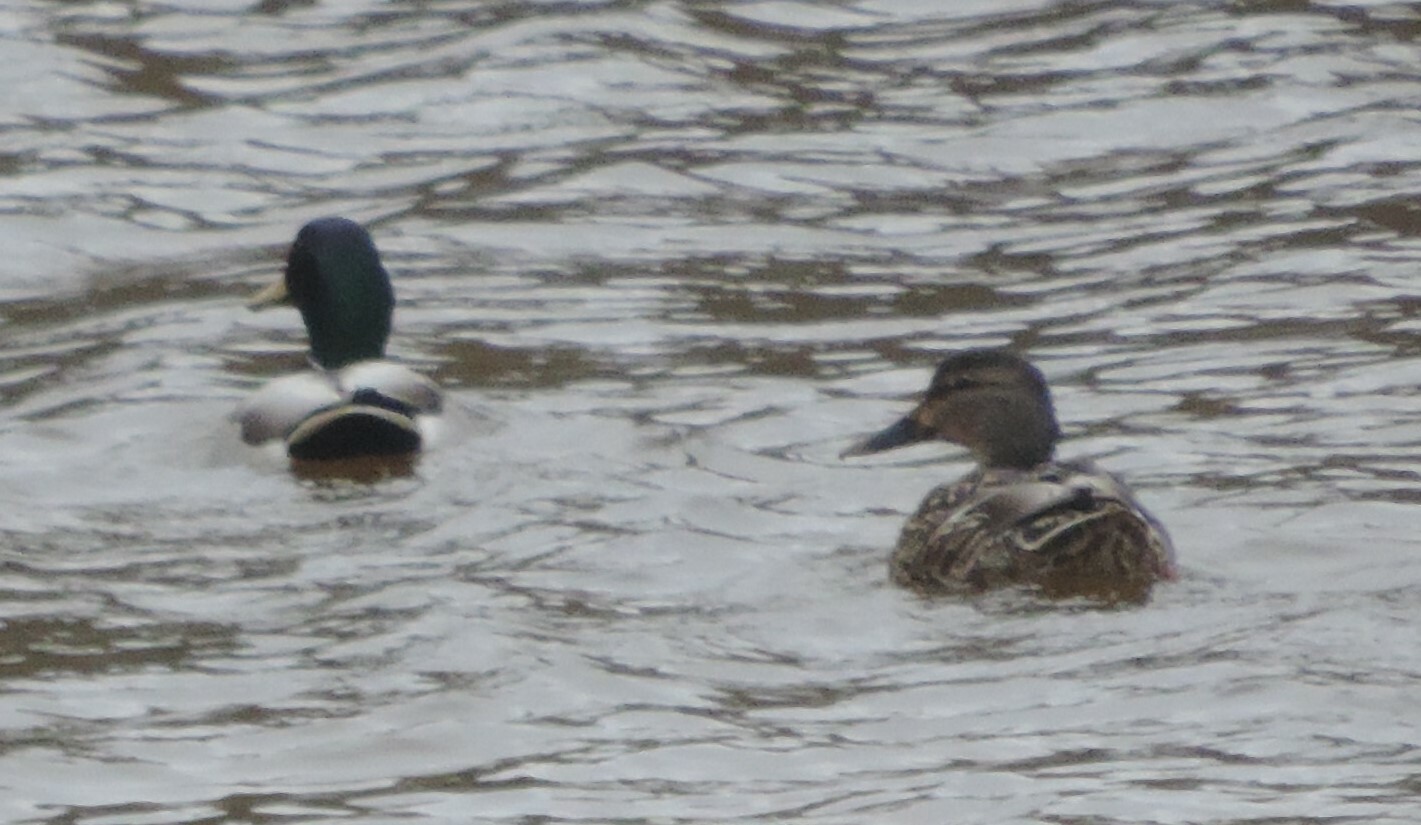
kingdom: Animalia
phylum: Chordata
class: Aves
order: Anseriformes
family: Anatidae
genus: Anas
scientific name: Anas platyrhynchos
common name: Mallard
